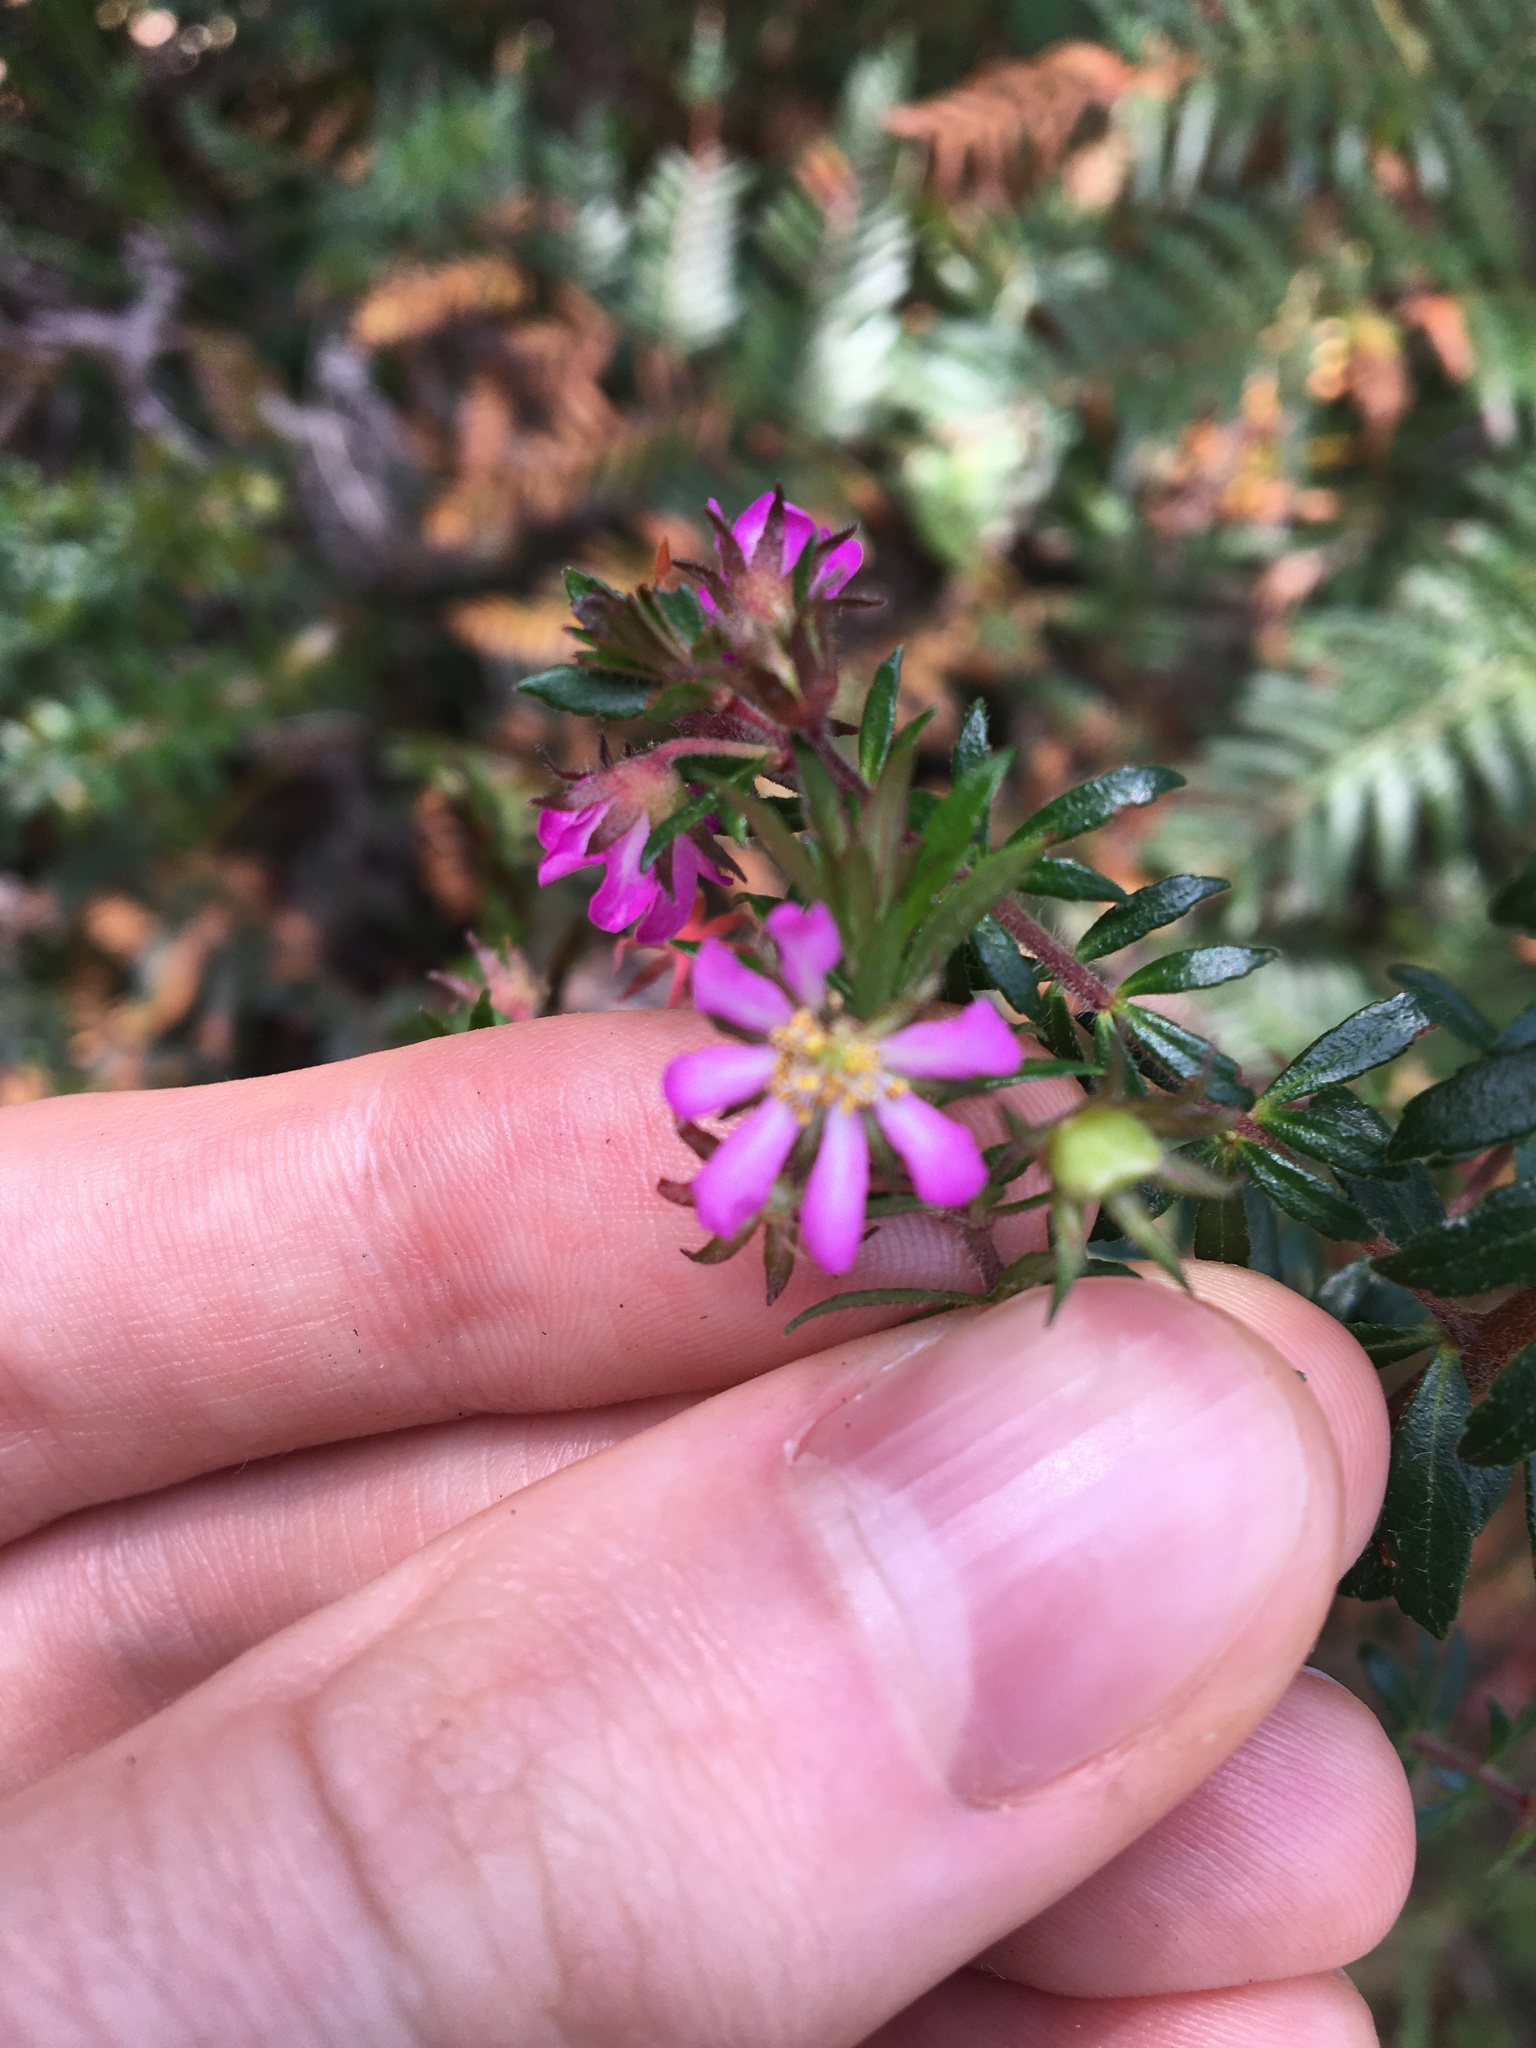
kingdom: Plantae
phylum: Tracheophyta
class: Magnoliopsida
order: Oxalidales
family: Cunoniaceae
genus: Bauera
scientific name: Bauera rubioides
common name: River-rose
